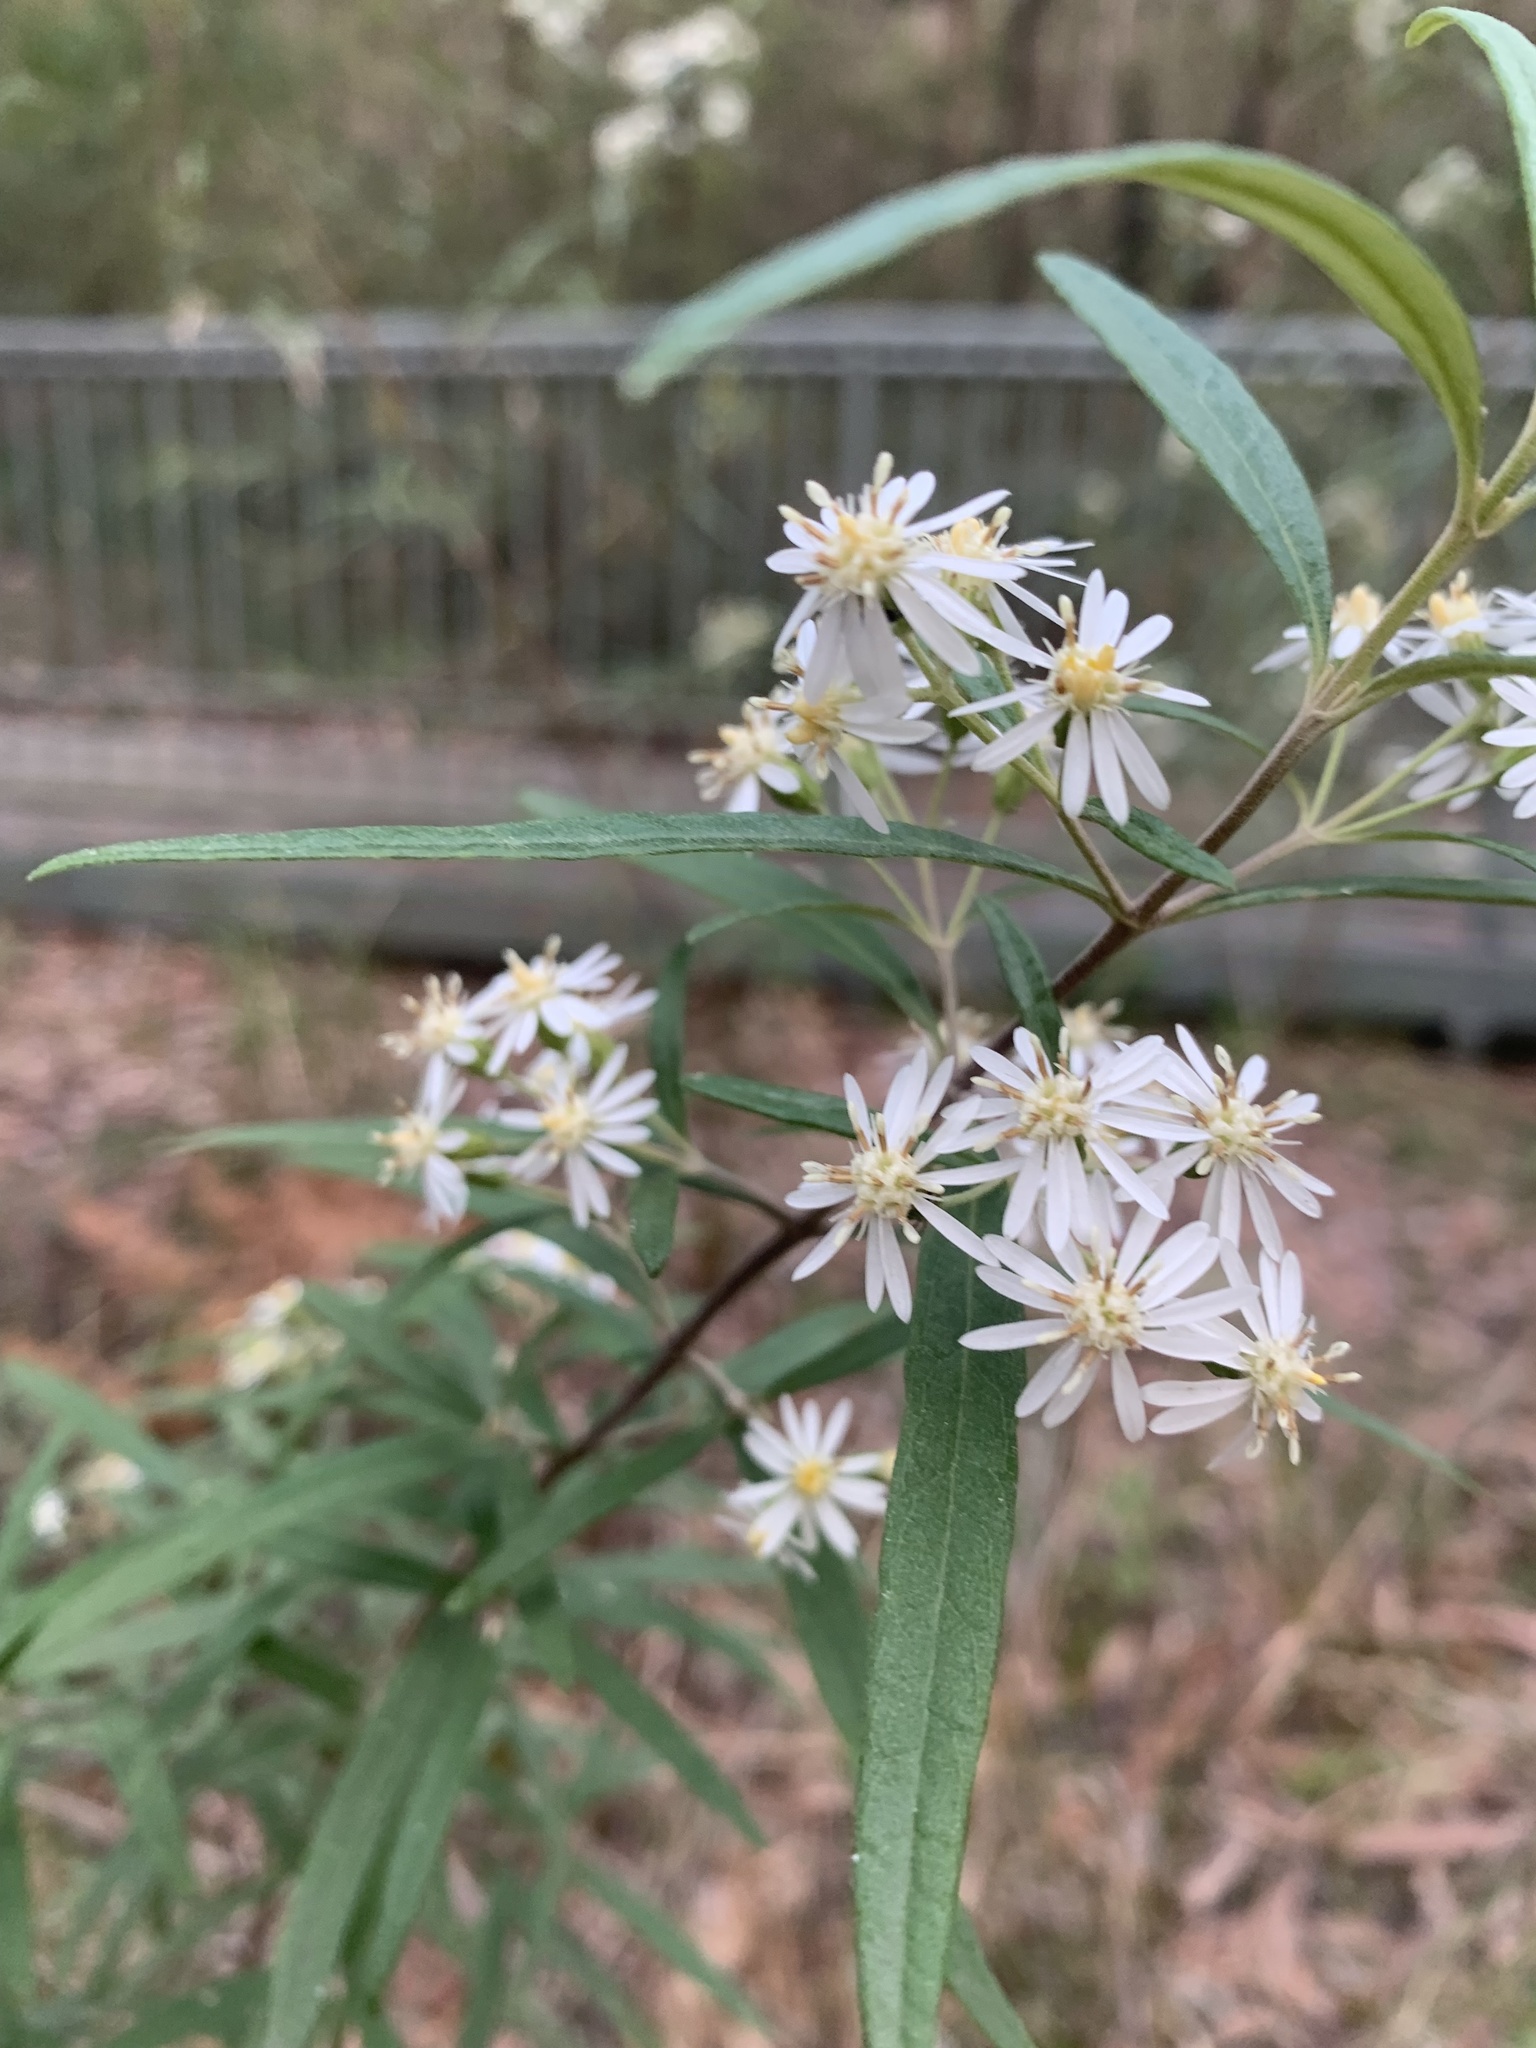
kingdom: Plantae
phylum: Tracheophyta
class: Magnoliopsida
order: Asterales
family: Asteraceae
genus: Olearia
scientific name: Olearia viscidula
